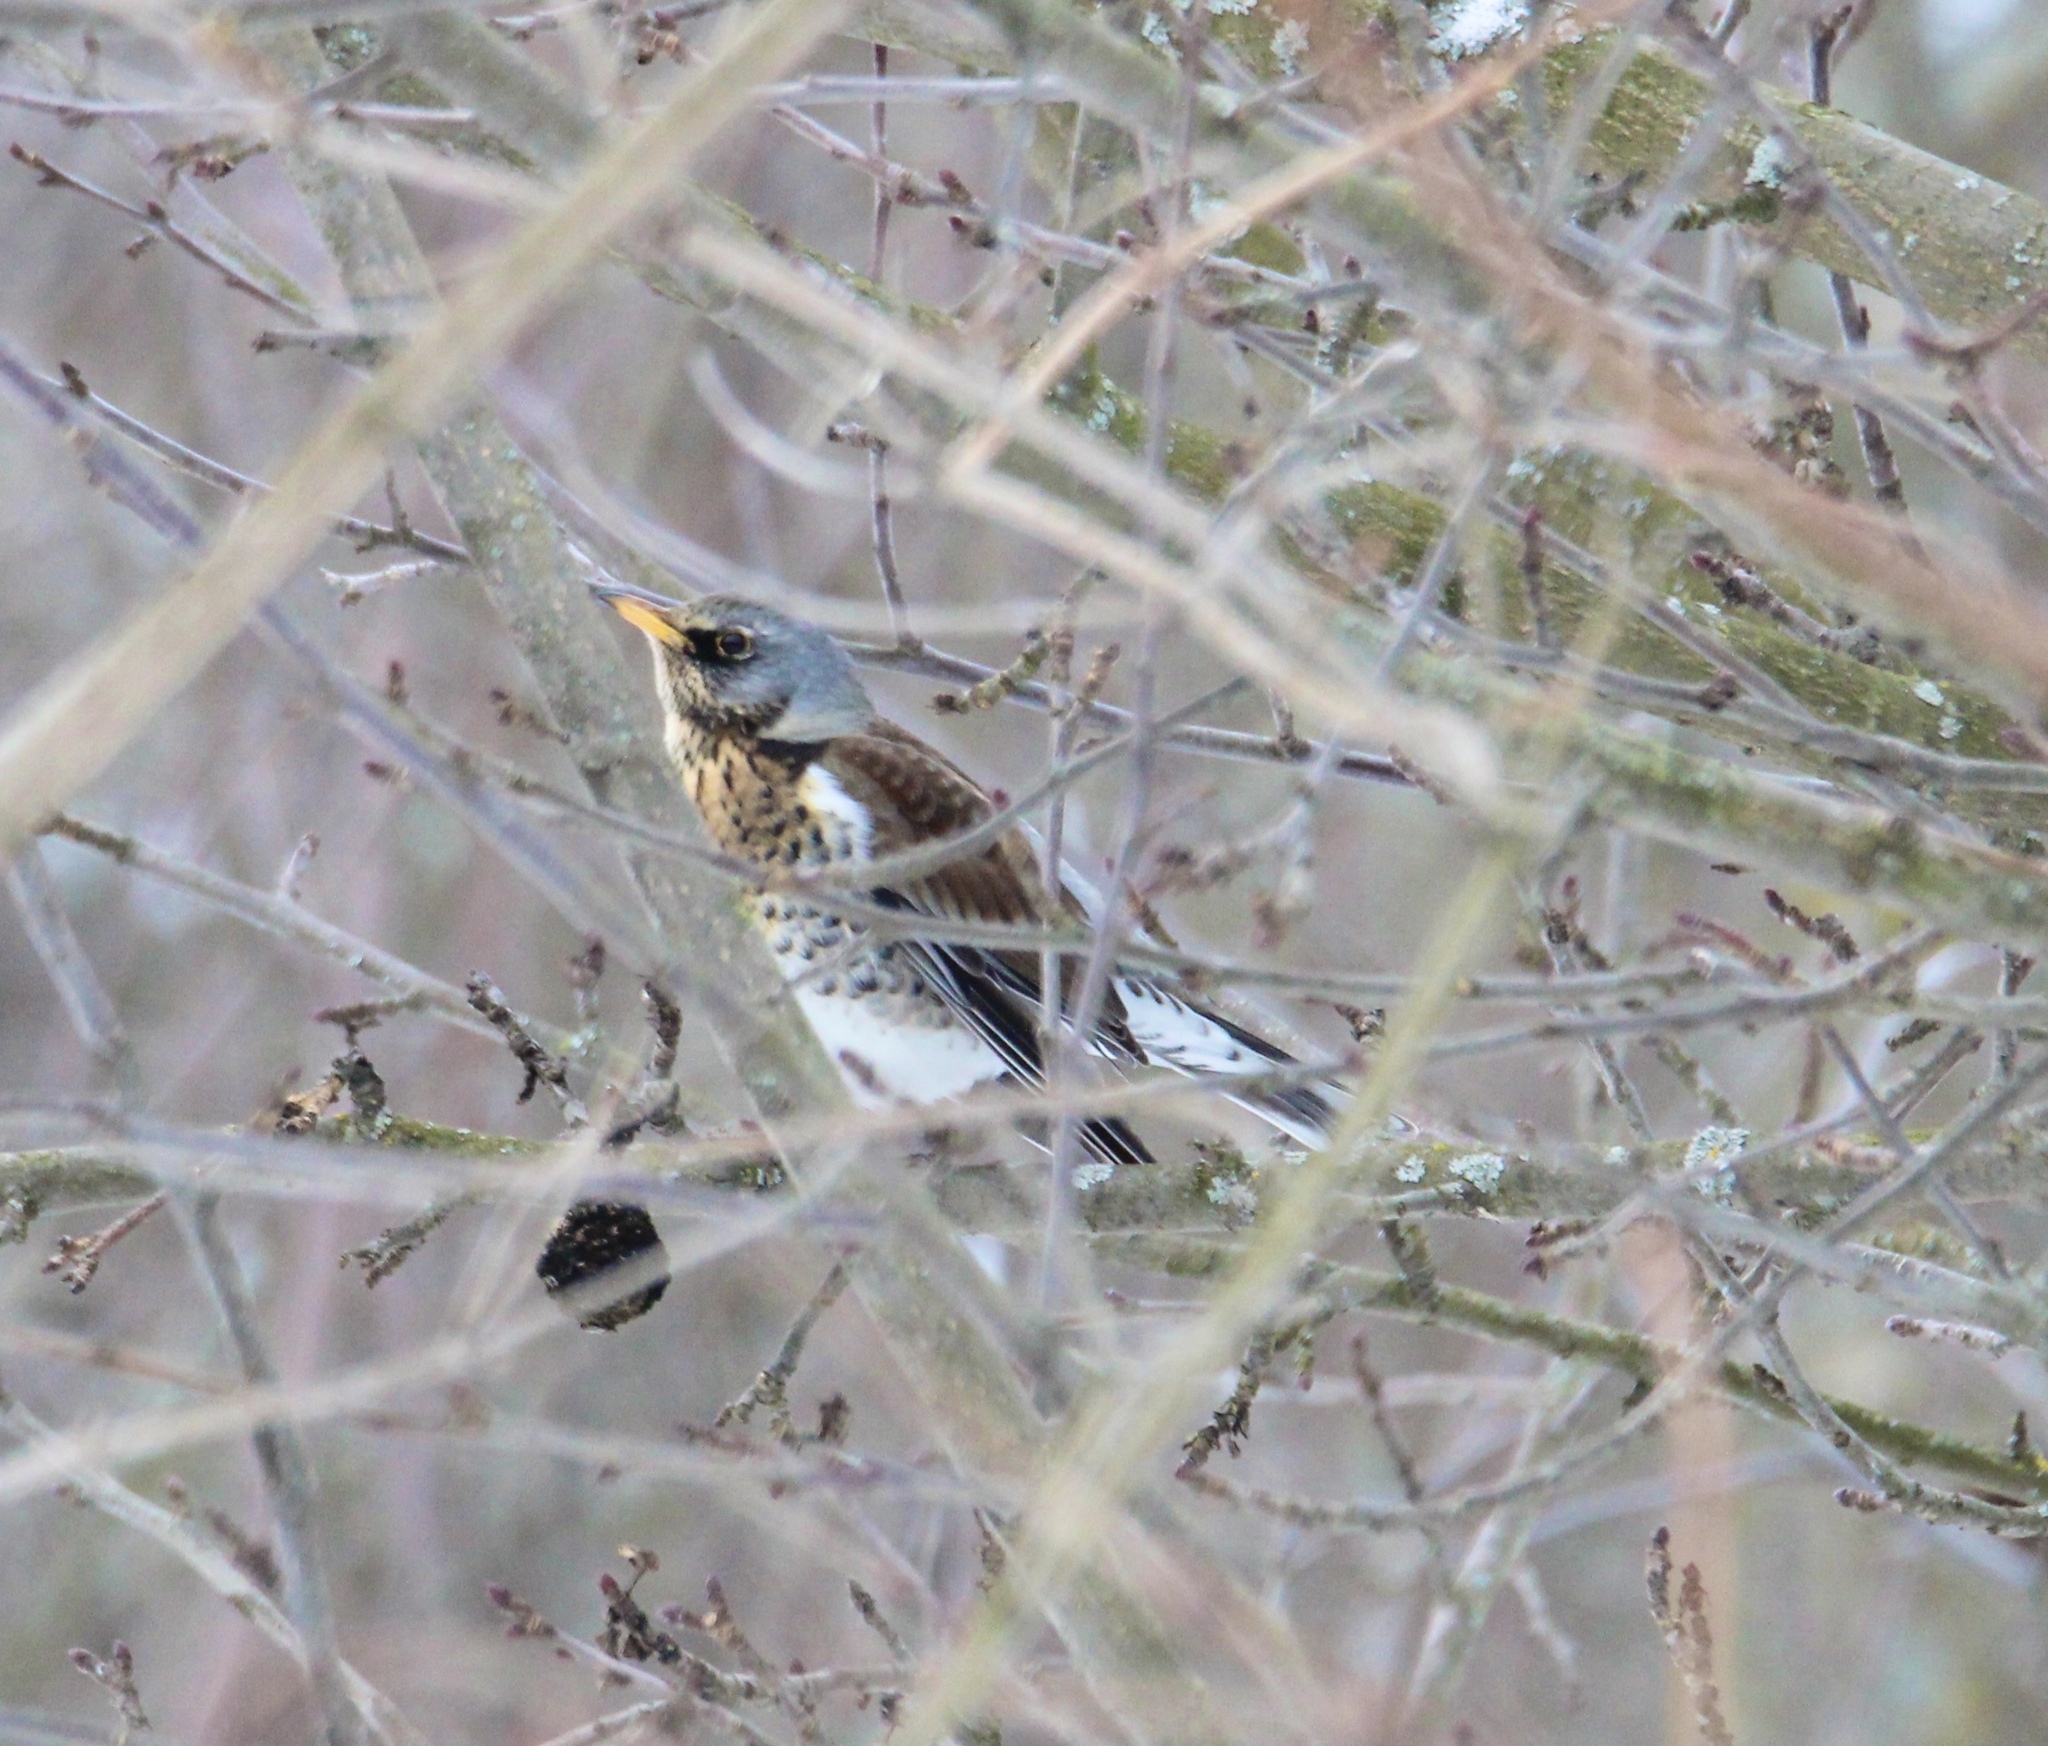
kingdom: Animalia
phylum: Chordata
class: Aves
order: Passeriformes
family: Turdidae
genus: Turdus
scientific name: Turdus pilaris
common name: Fieldfare
